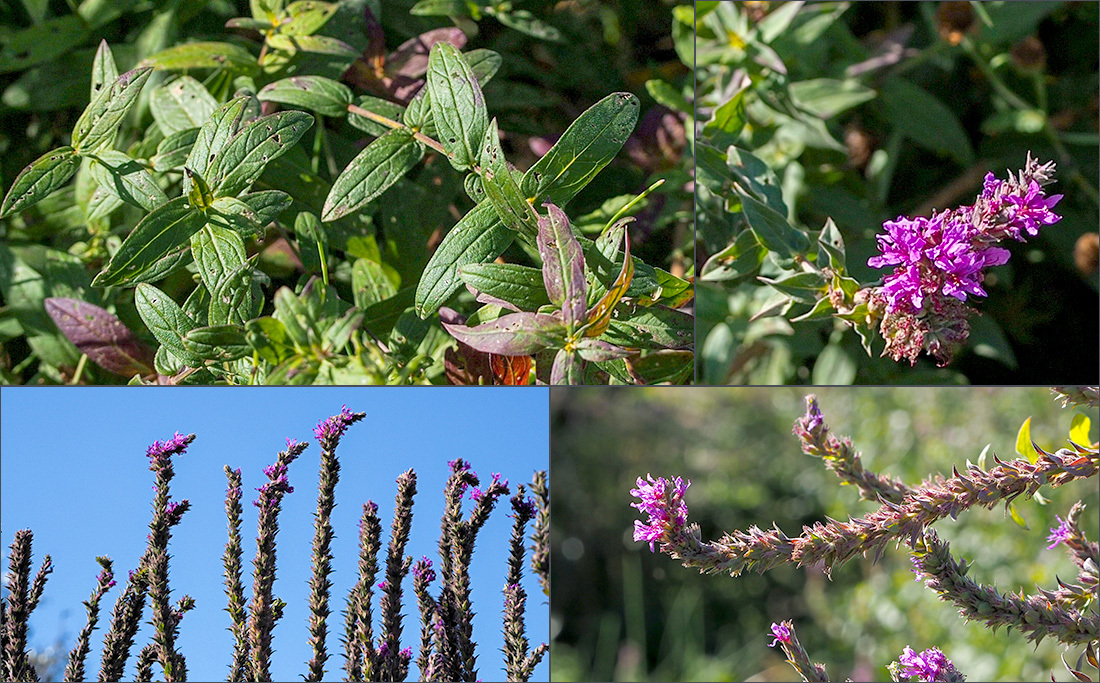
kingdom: Plantae
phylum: Tracheophyta
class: Magnoliopsida
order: Myrtales
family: Lythraceae
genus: Lythrum
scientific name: Lythrum salicaria
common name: Purple loosestrife
